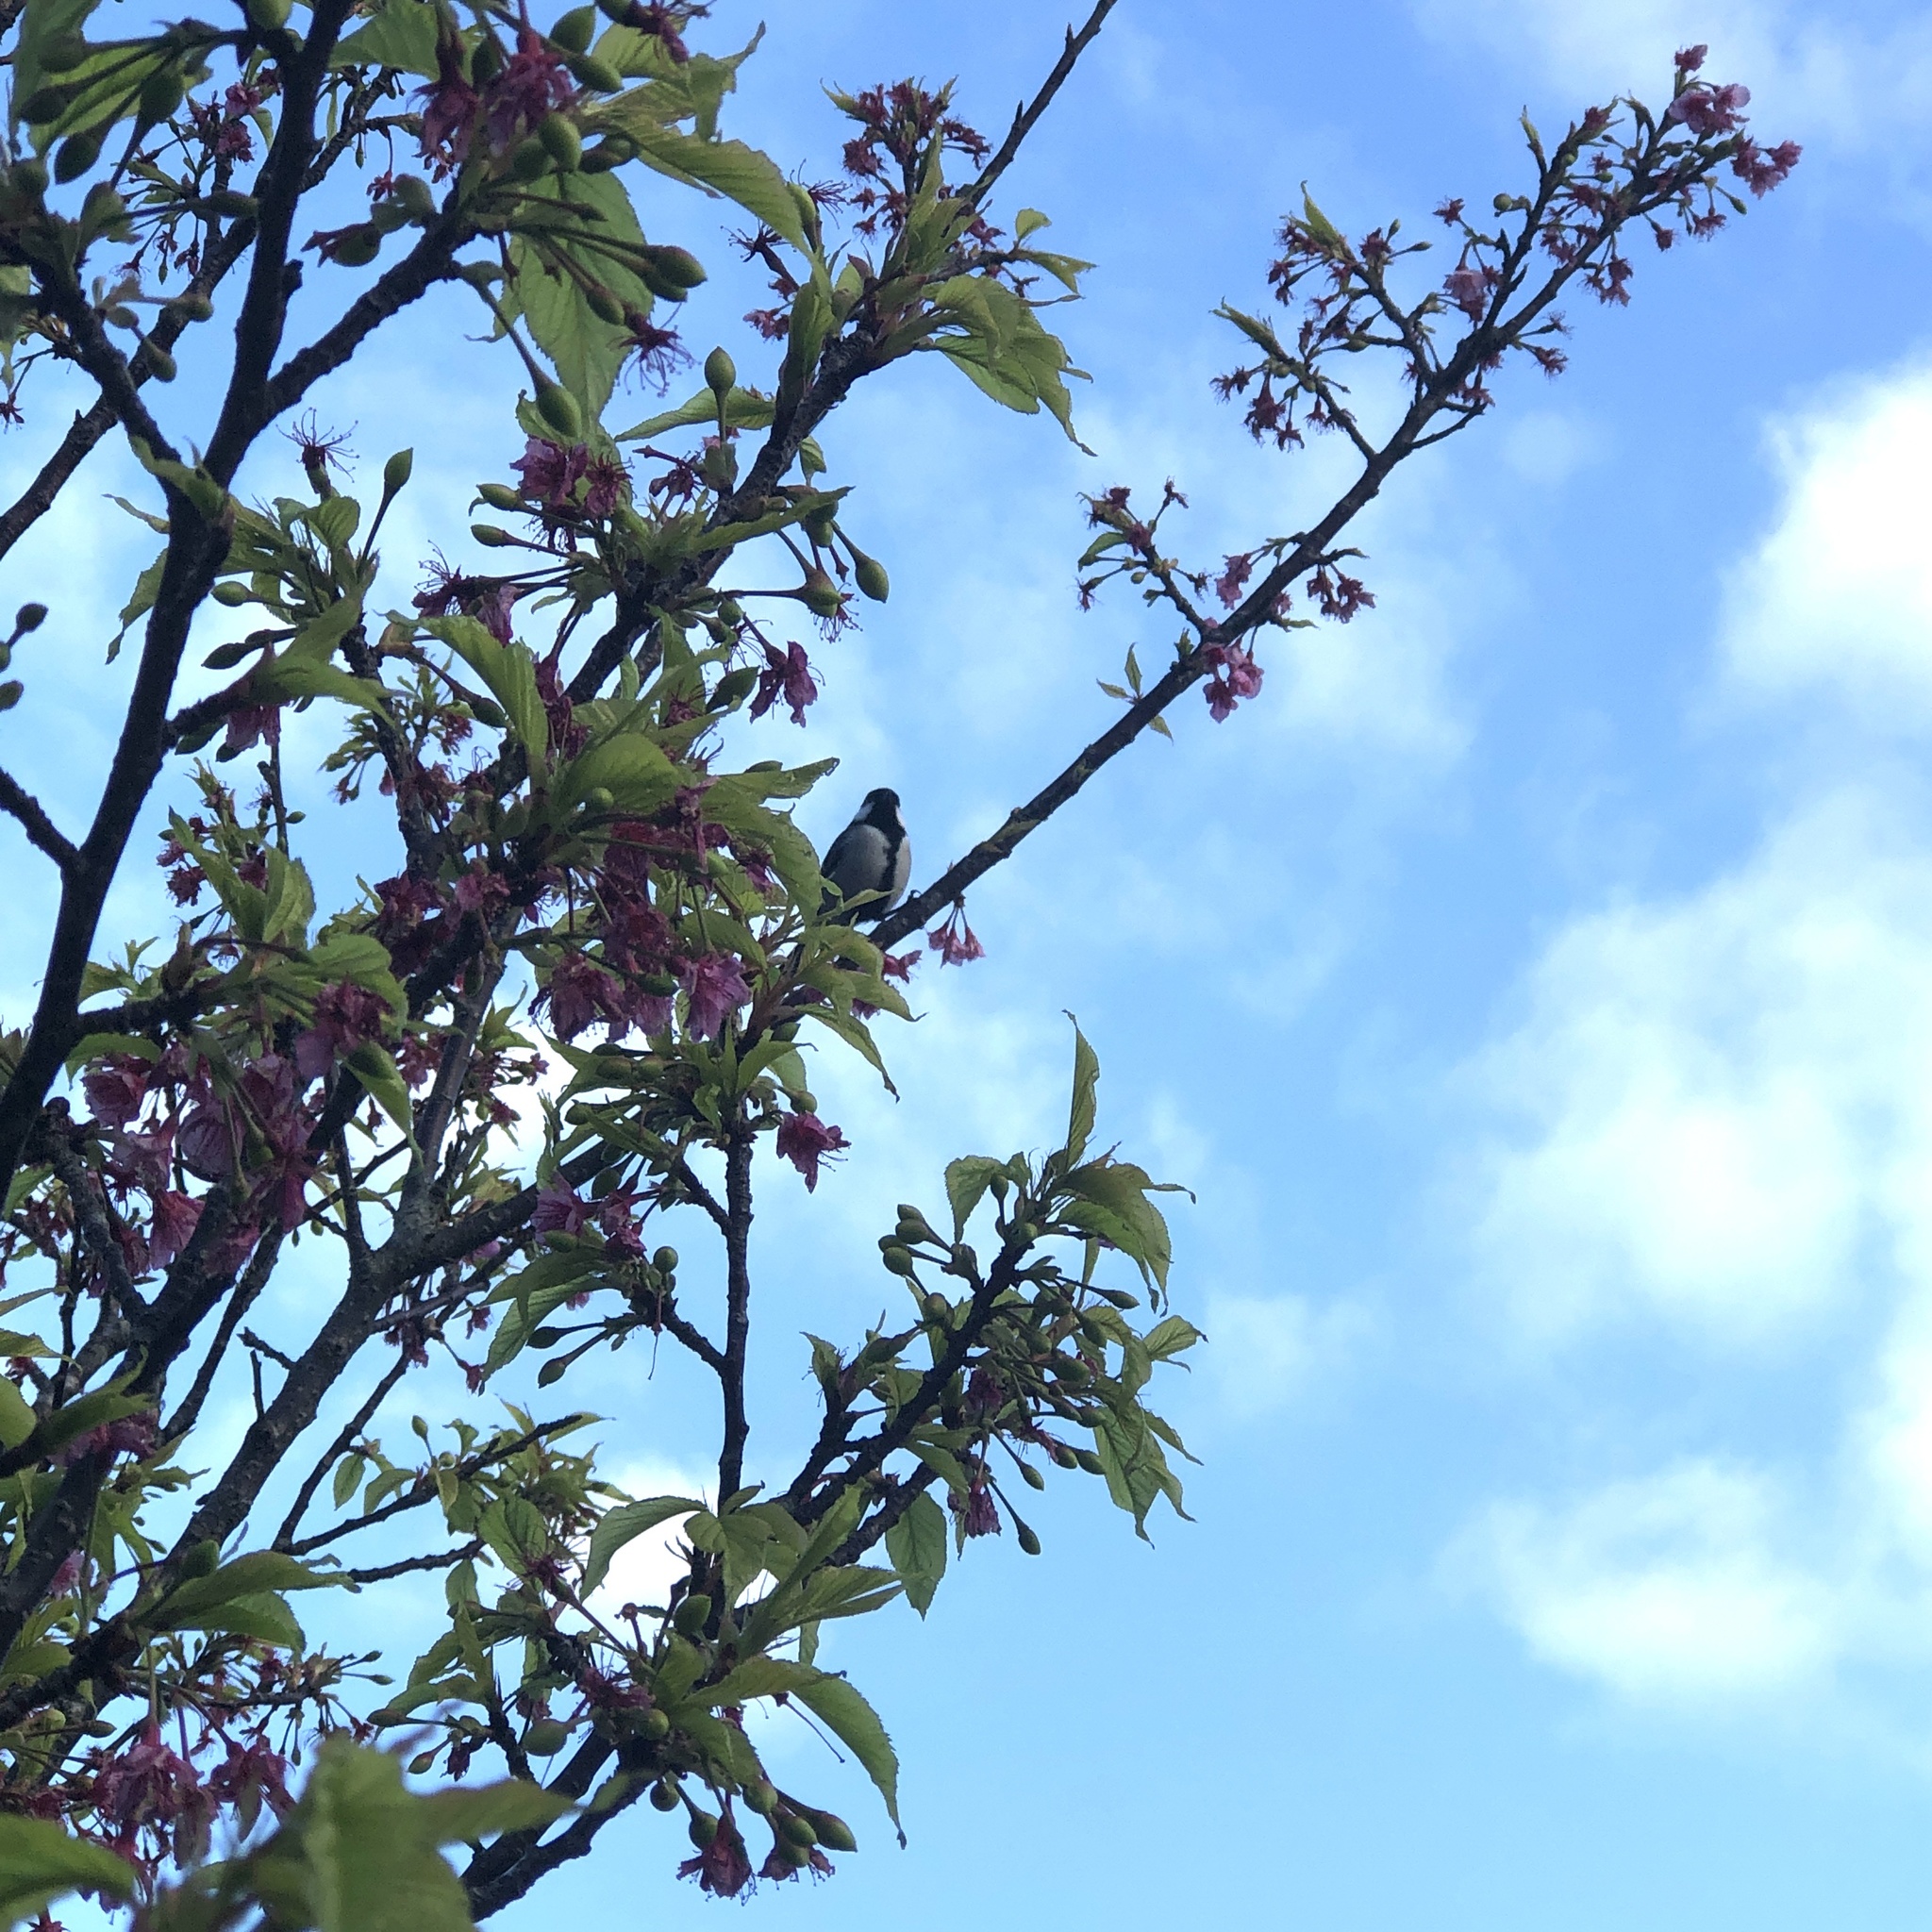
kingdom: Animalia
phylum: Chordata
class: Aves
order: Passeriformes
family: Paridae
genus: Parus
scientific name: Parus minor
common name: Japanese tit
